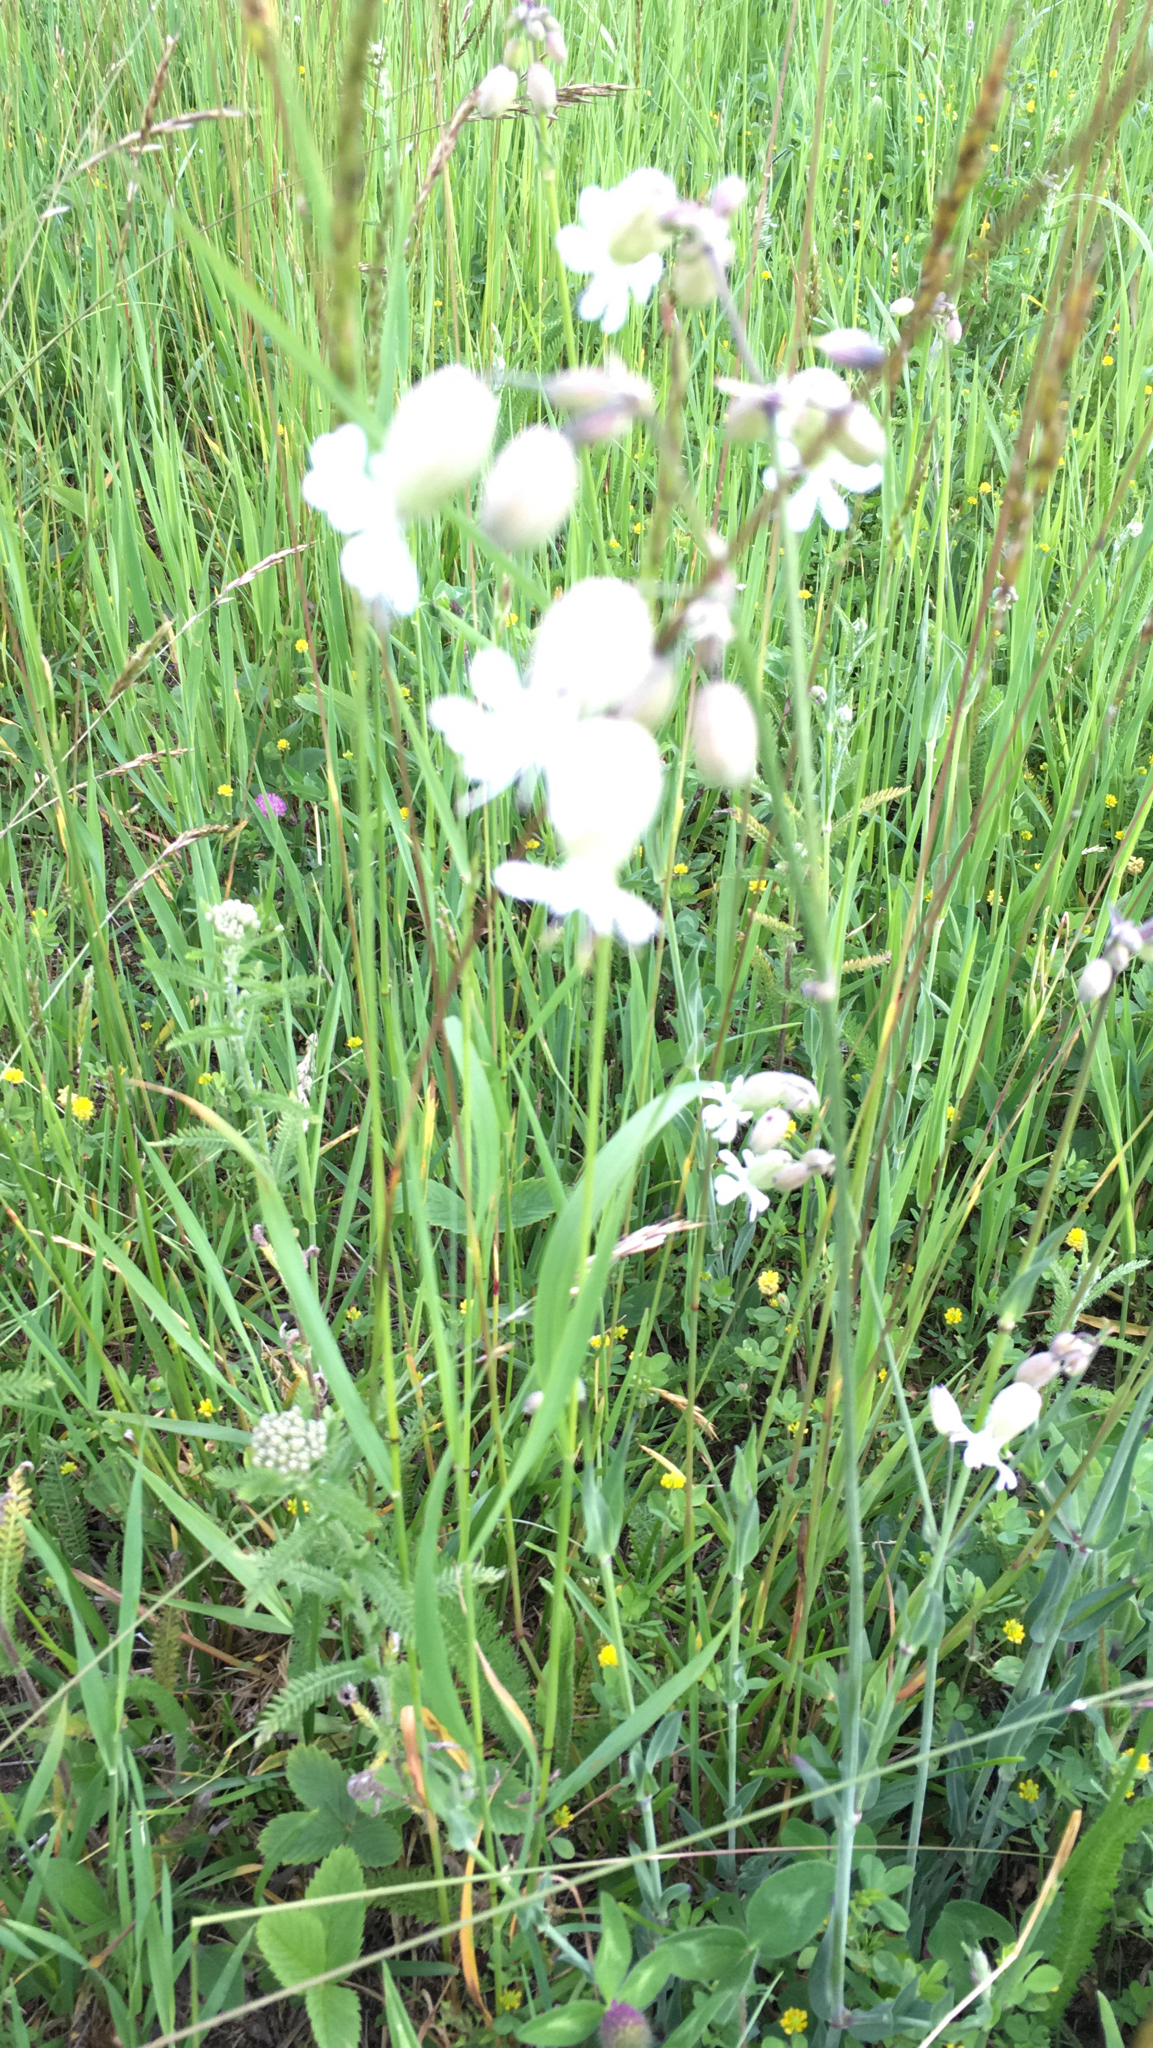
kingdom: Plantae
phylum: Tracheophyta
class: Magnoliopsida
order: Caryophyllales
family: Caryophyllaceae
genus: Silene
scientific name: Silene vulgaris
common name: Bladder campion
